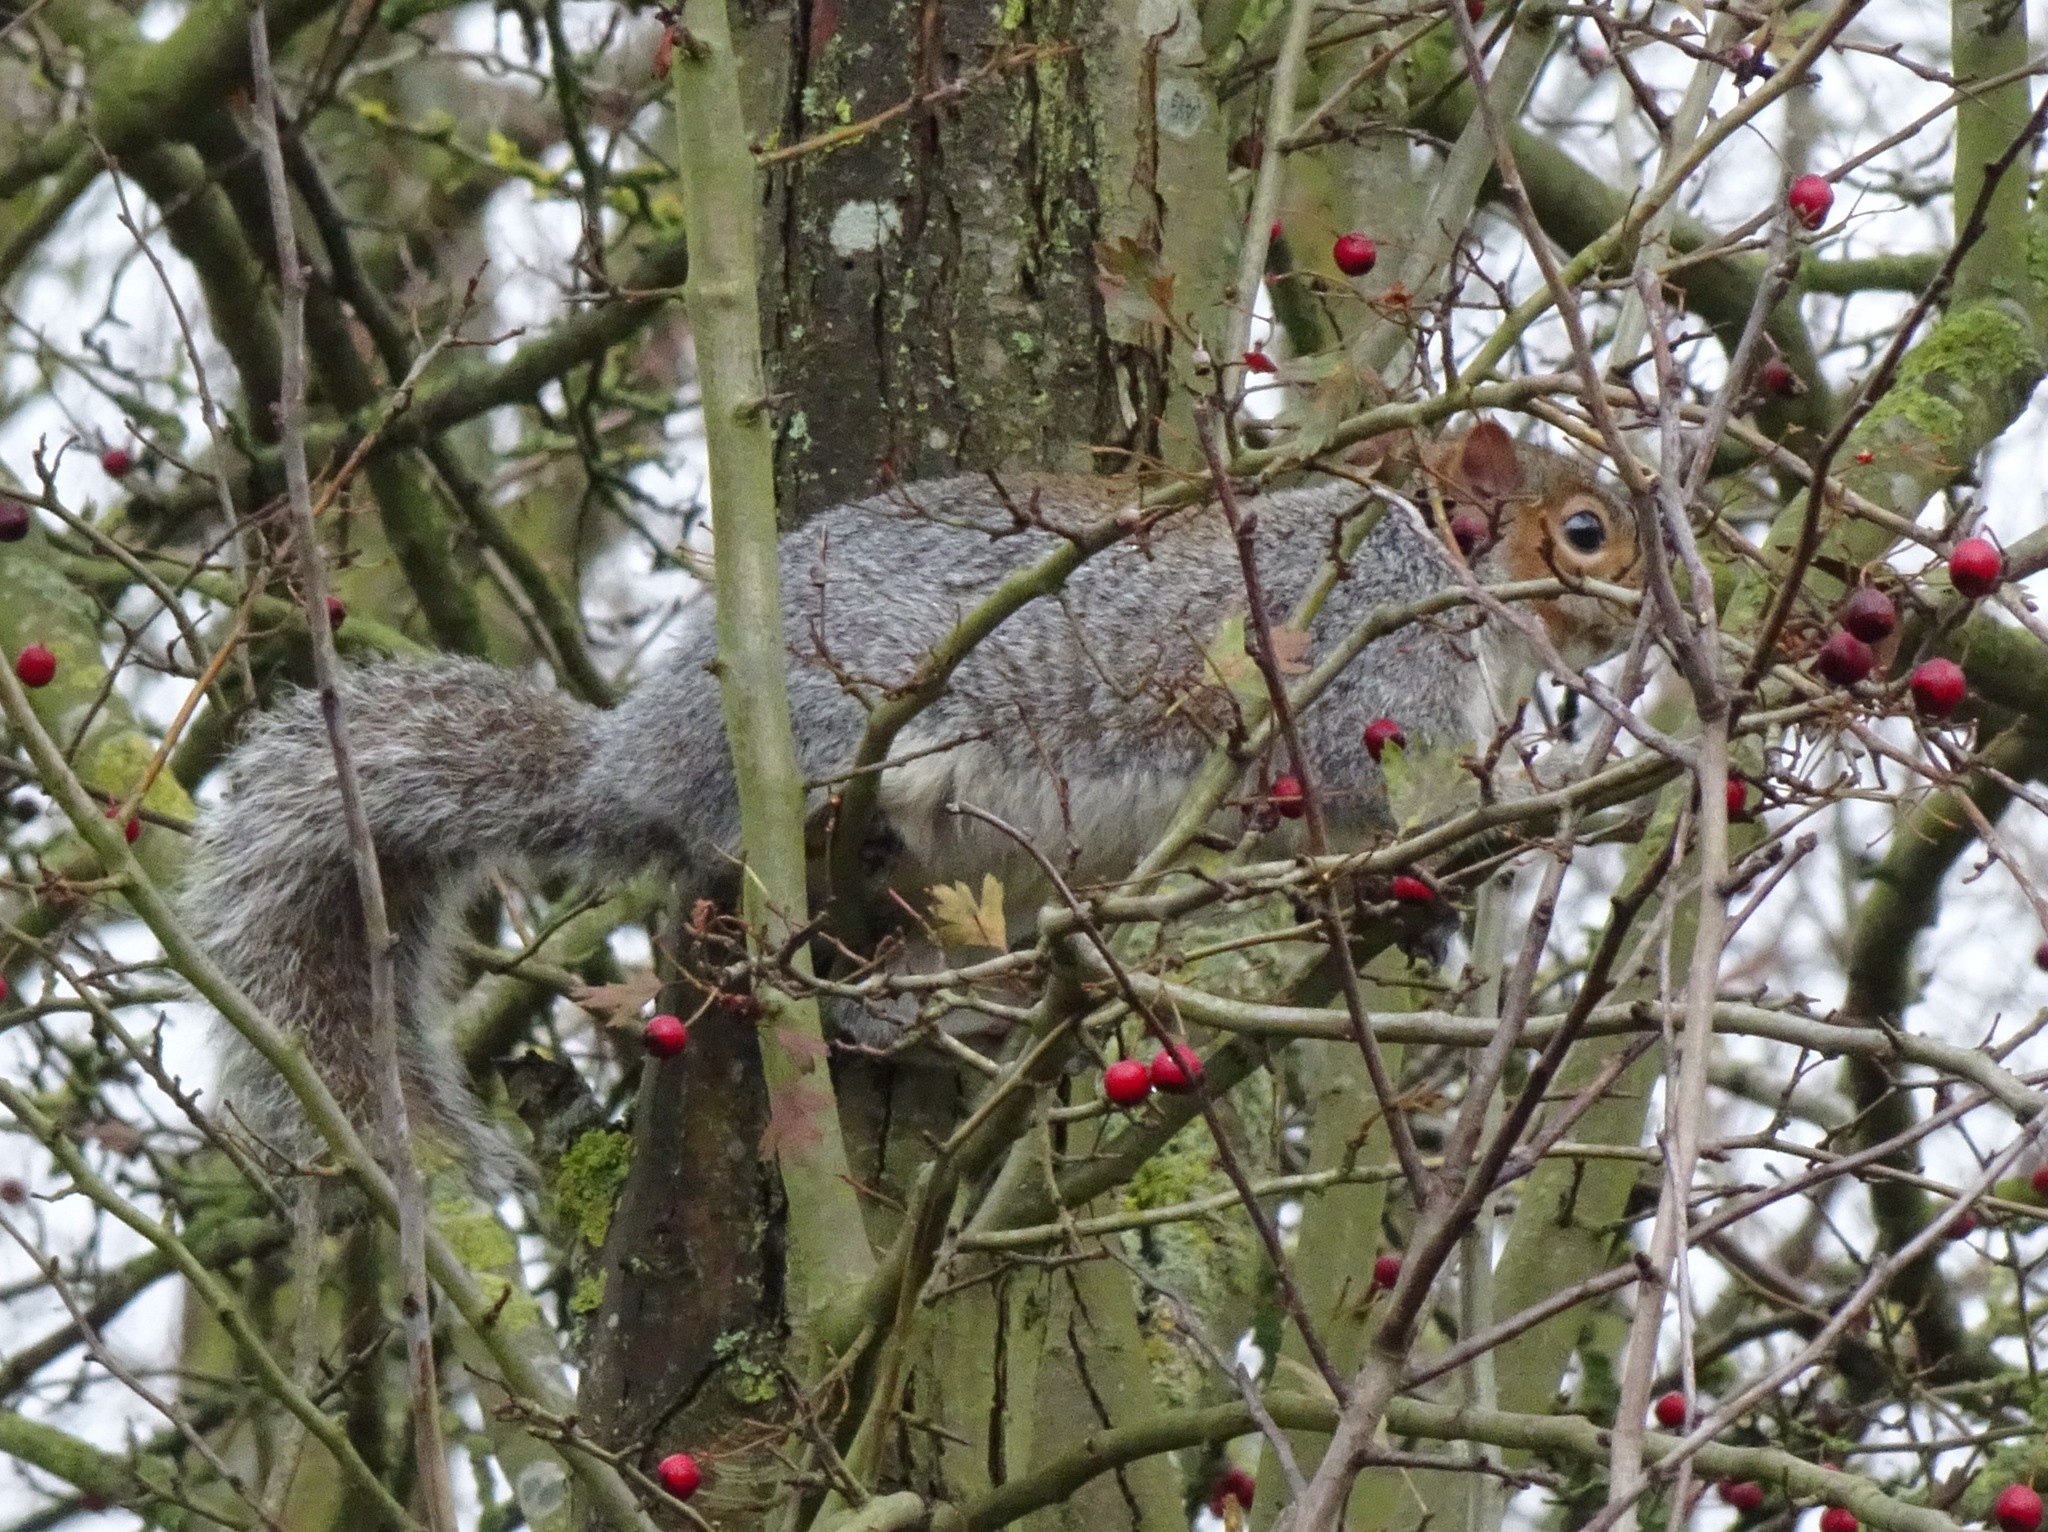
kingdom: Animalia
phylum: Chordata
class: Mammalia
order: Rodentia
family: Sciuridae
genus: Sciurus
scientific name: Sciurus carolinensis
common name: Eastern gray squirrel
